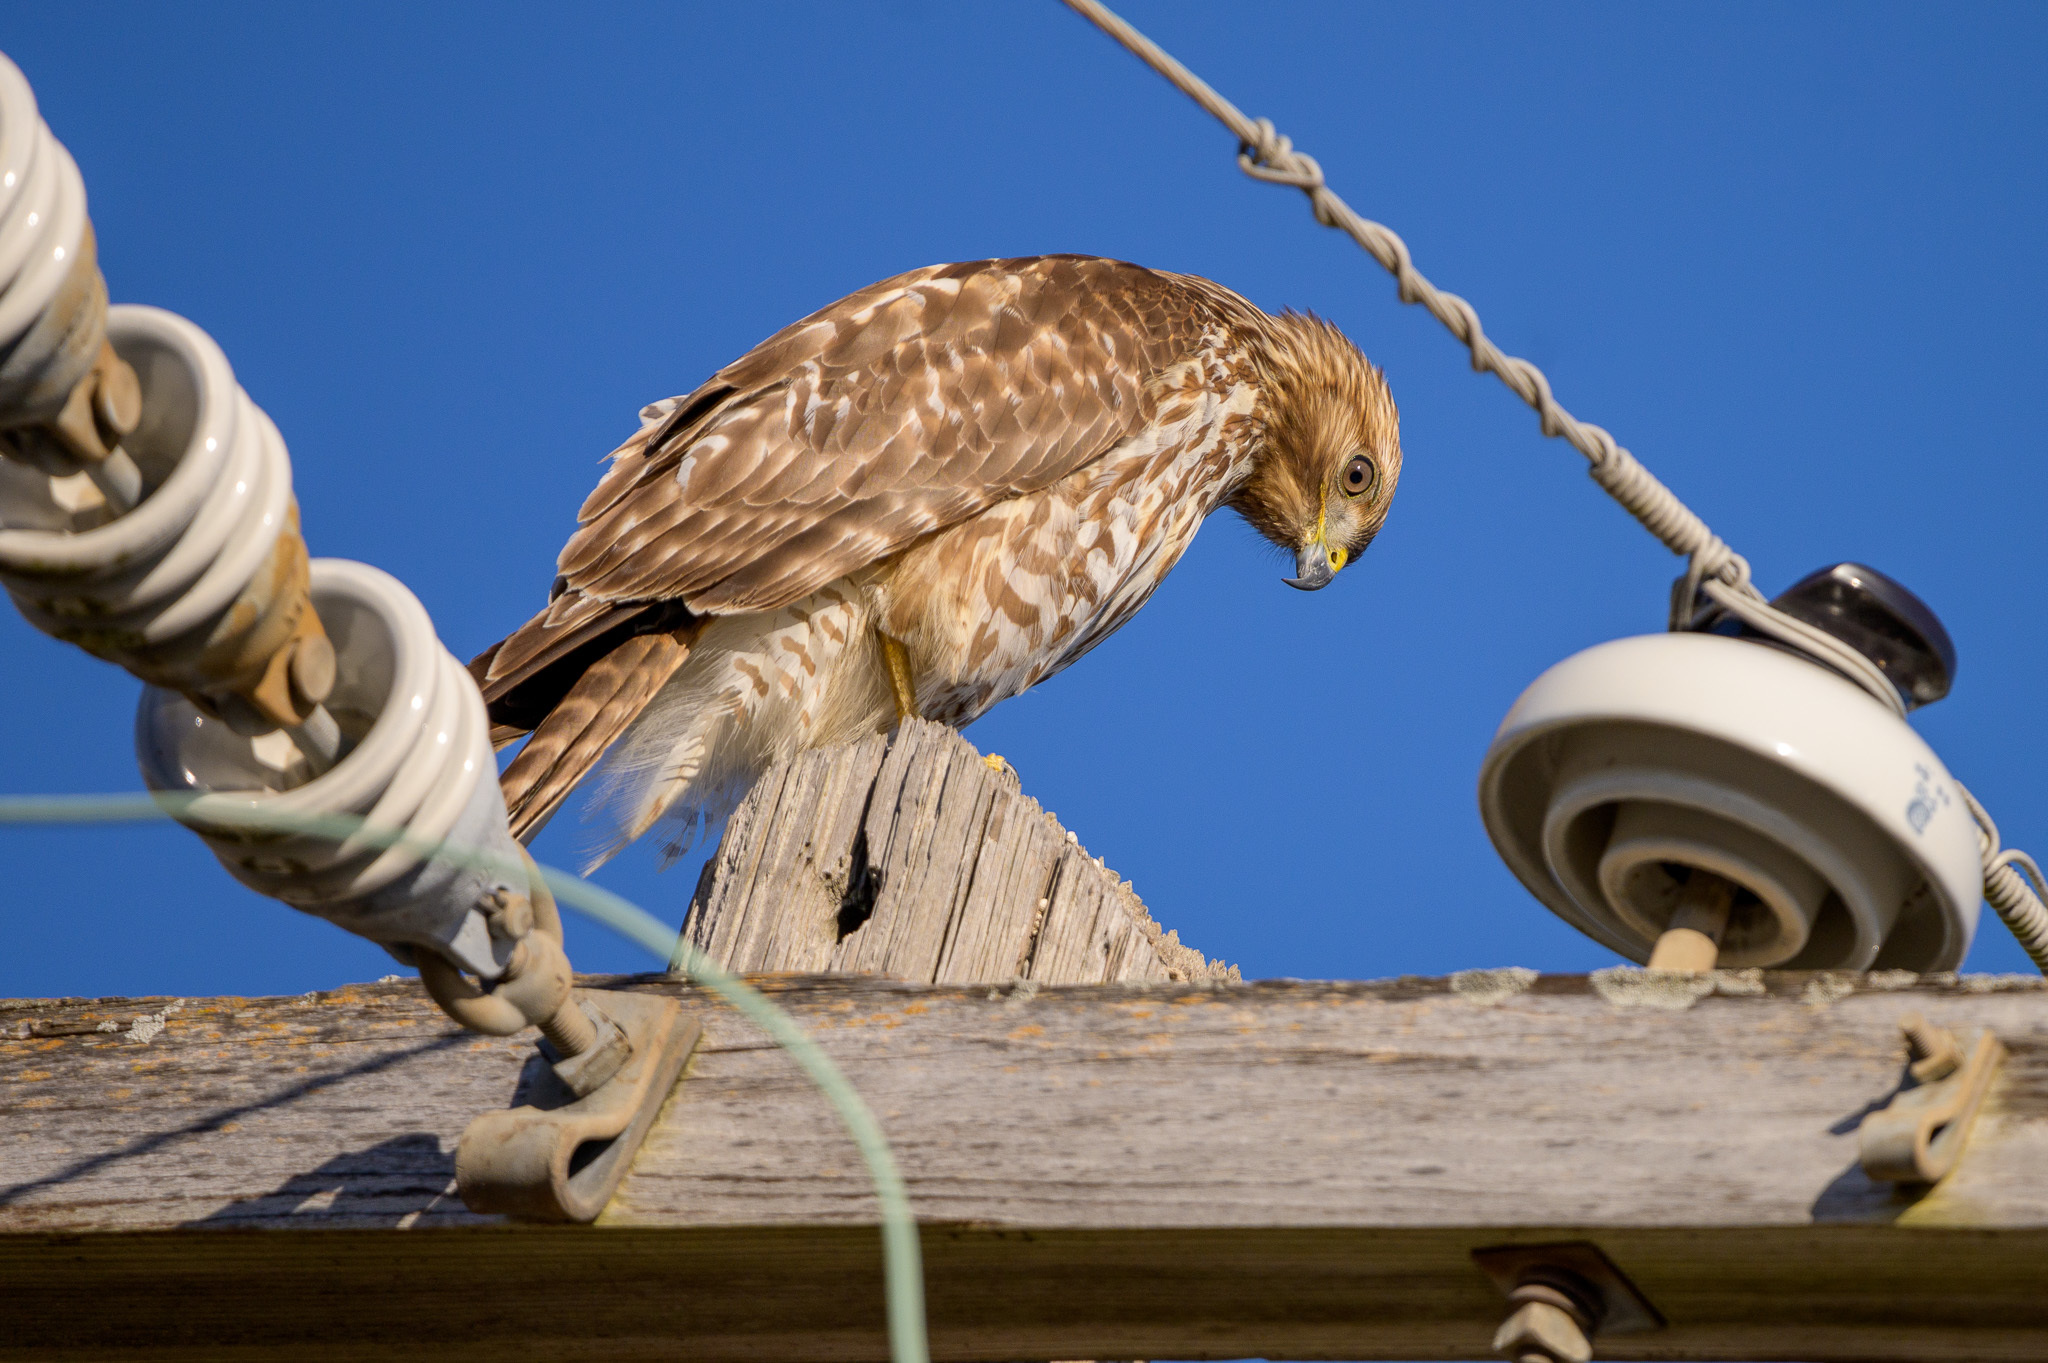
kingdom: Animalia
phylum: Chordata
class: Aves
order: Accipitriformes
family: Accipitridae
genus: Buteo
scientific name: Buteo lineatus
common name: Red-shouldered hawk
